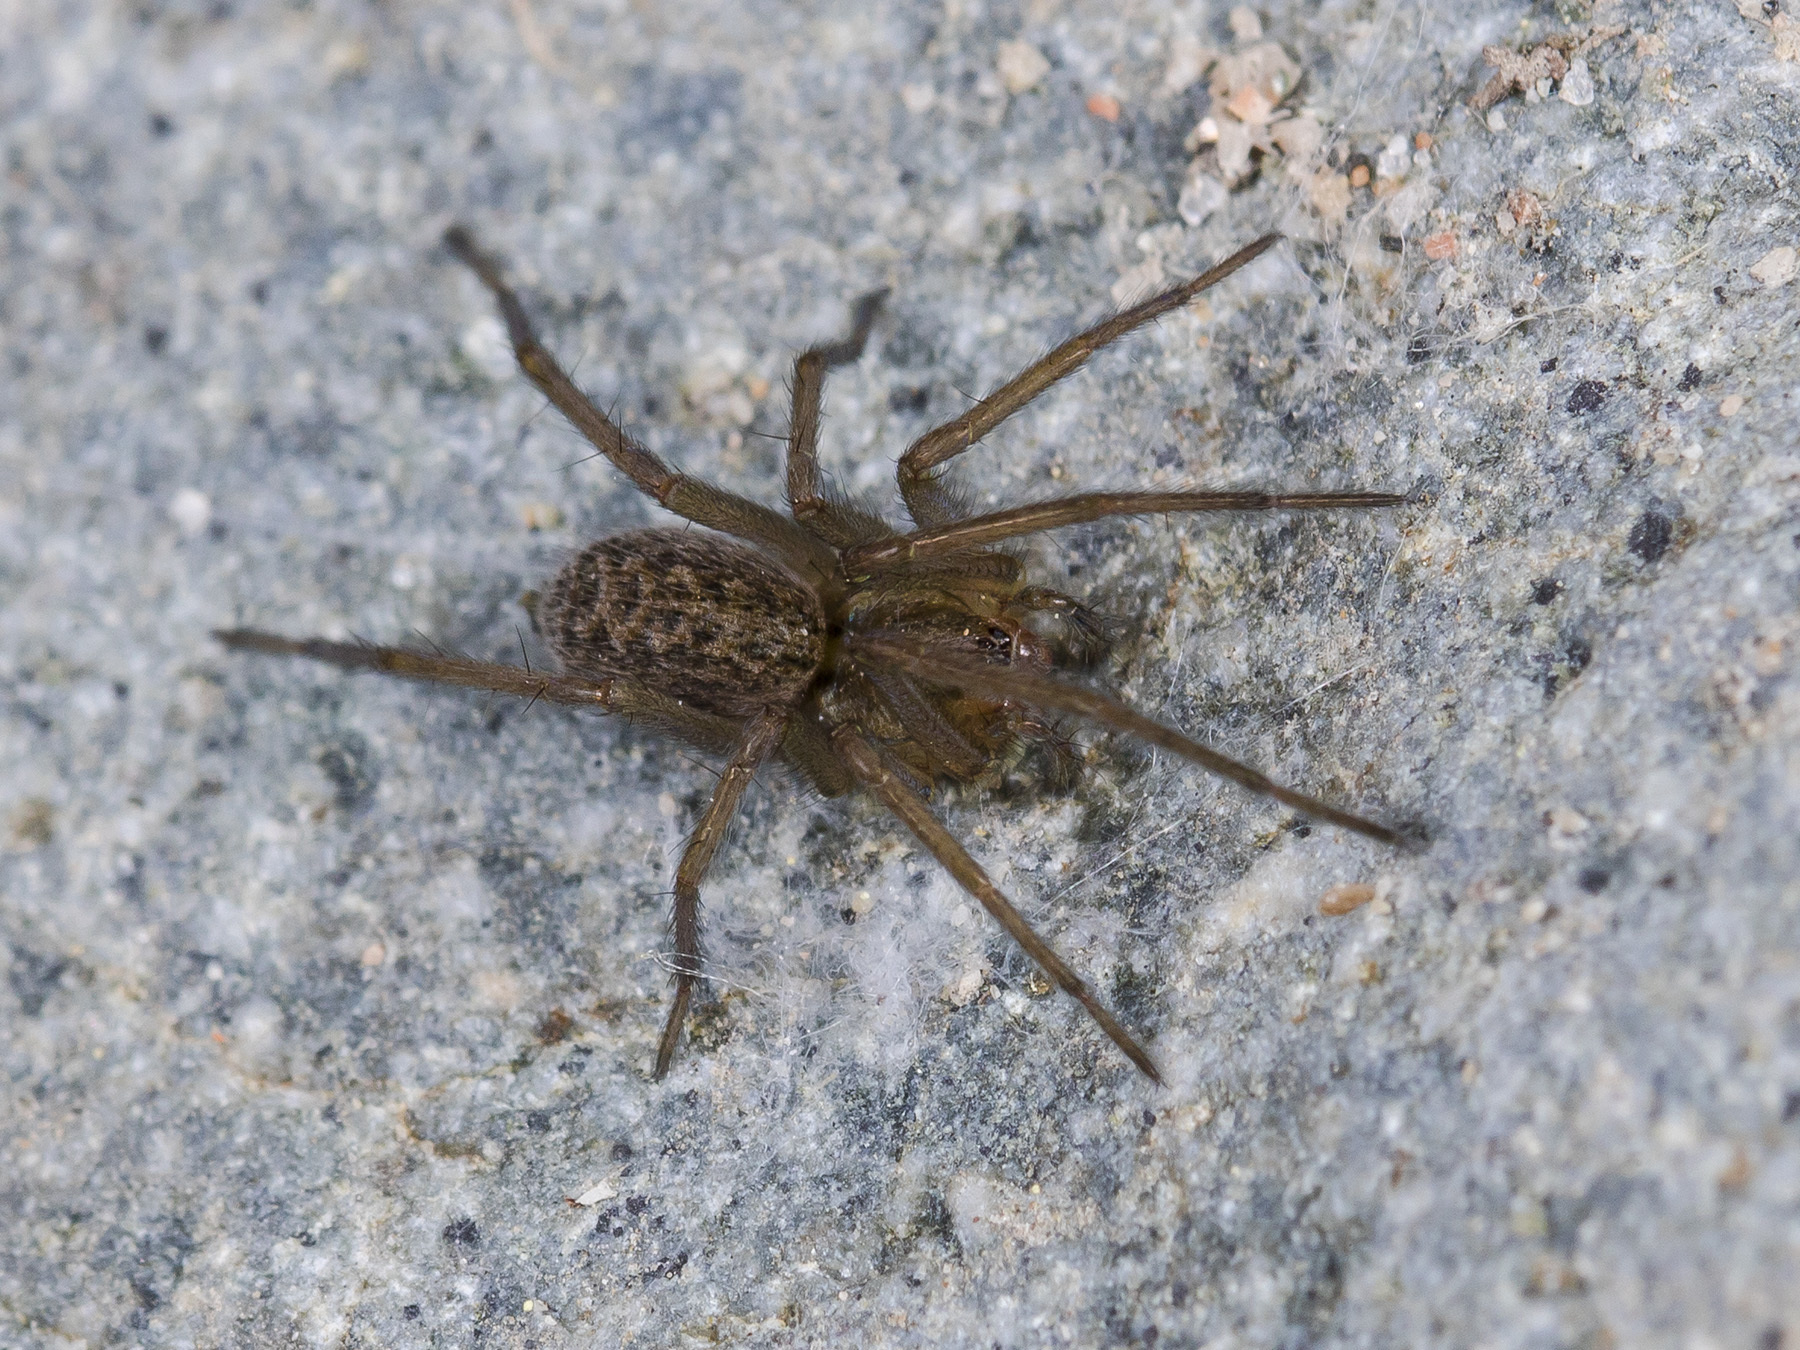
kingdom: Animalia
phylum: Arthropoda
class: Arachnida
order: Araneae
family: Agelenidae
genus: Eratigena
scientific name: Eratigena agrestis
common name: Hobo spider
